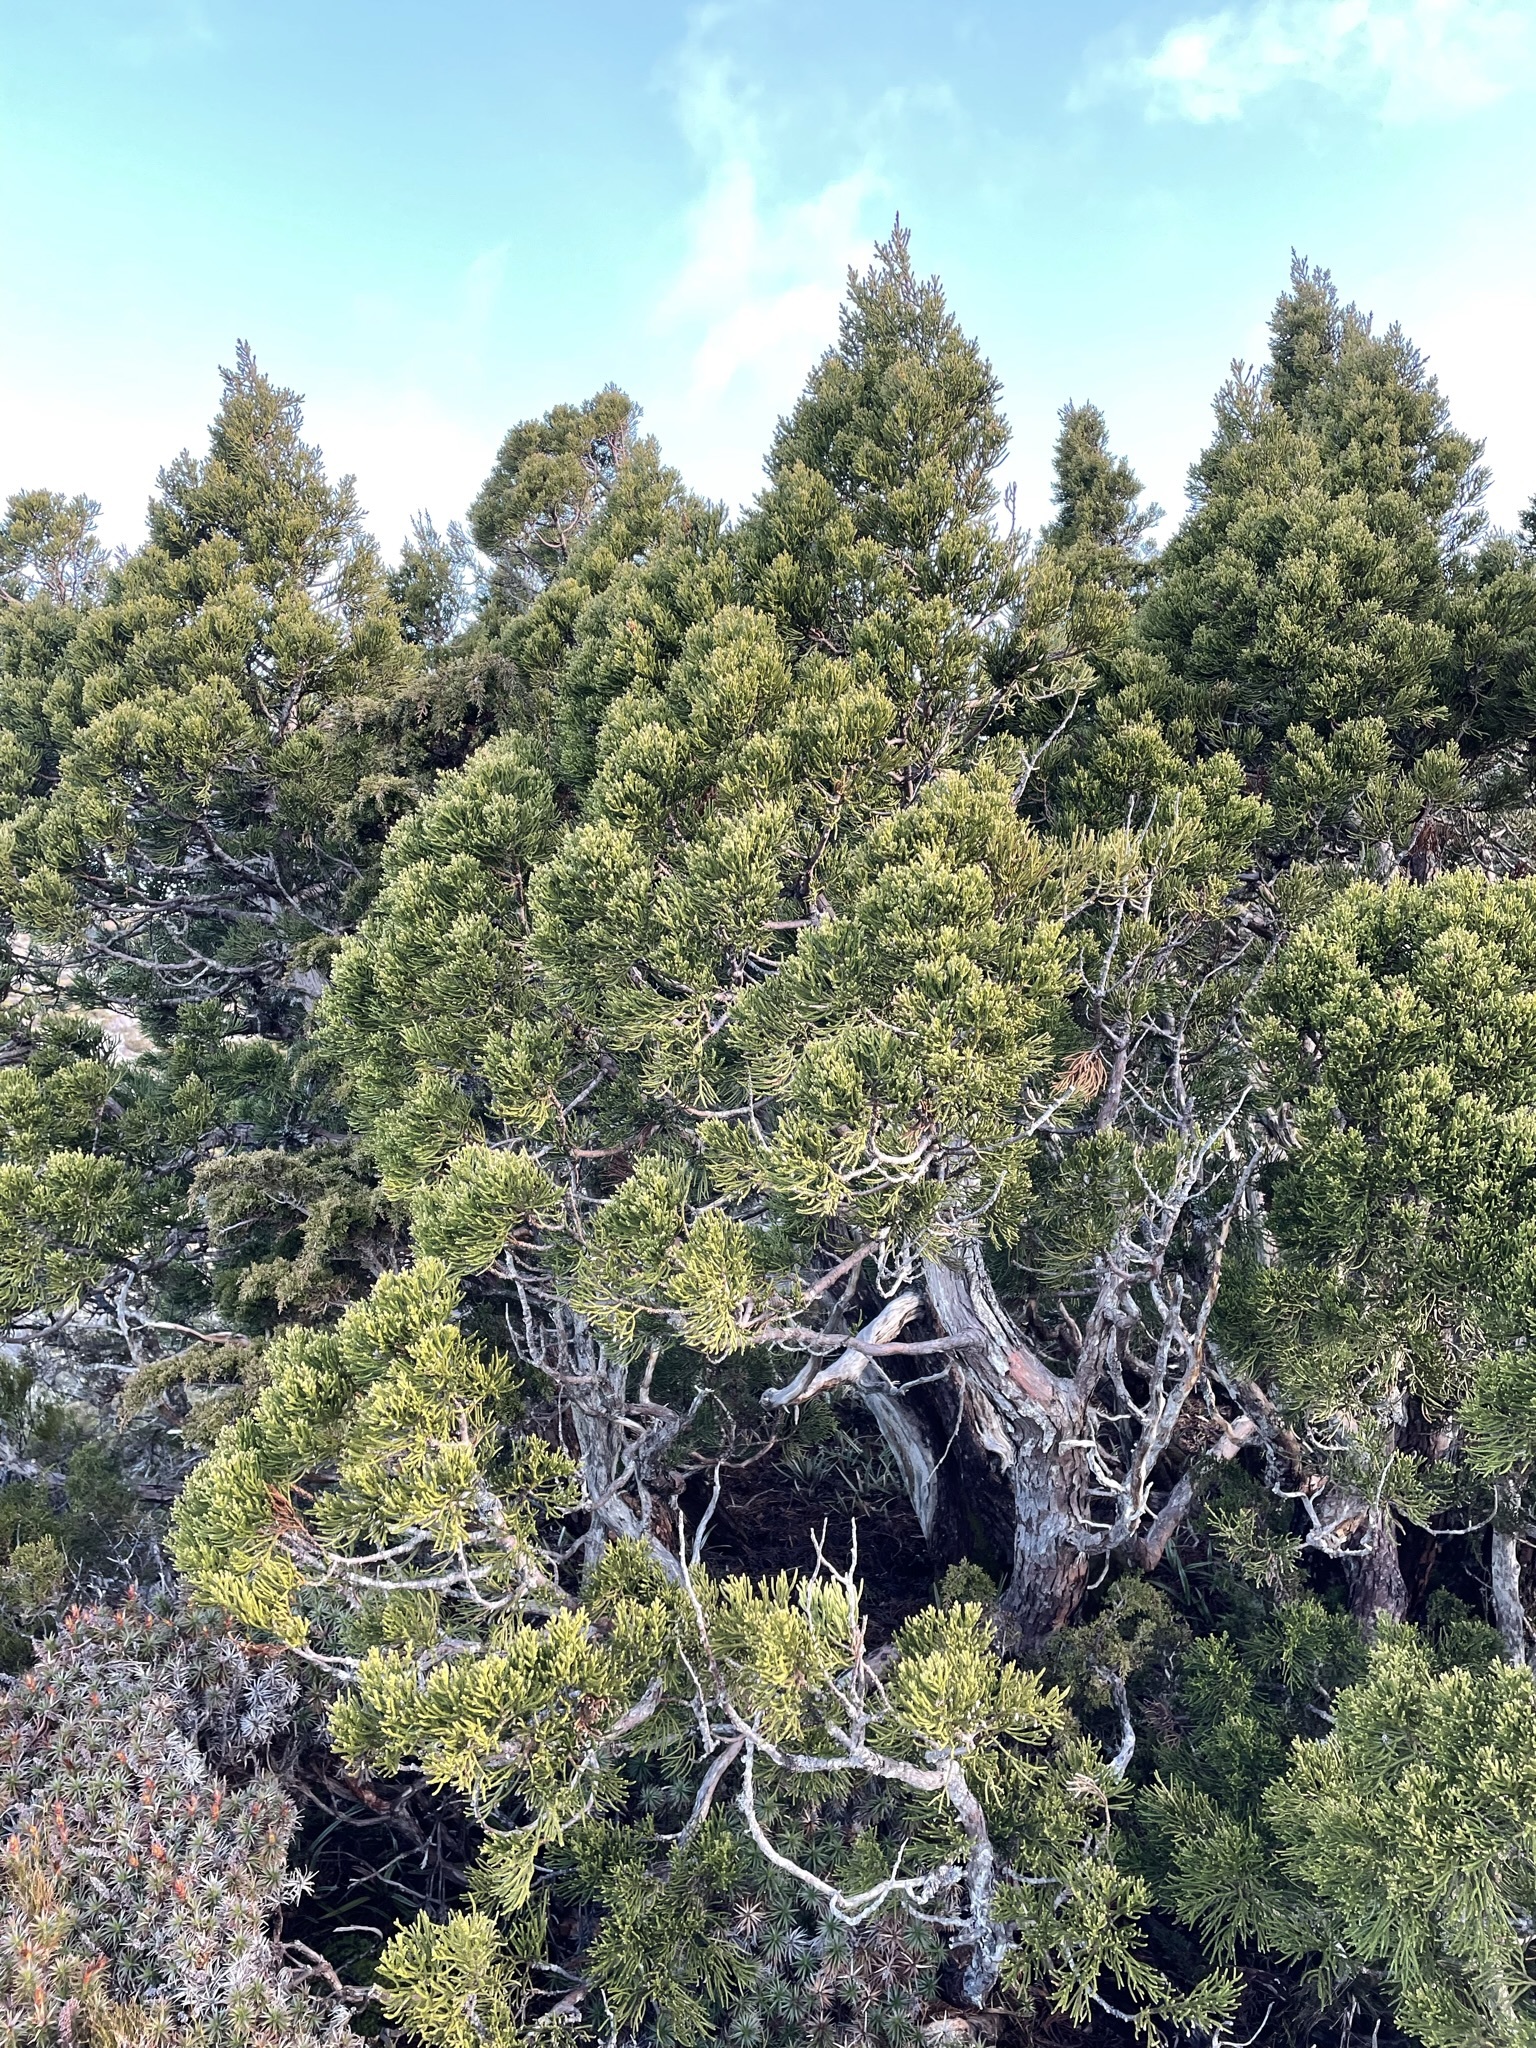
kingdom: Plantae
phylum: Tracheophyta
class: Pinopsida
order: Pinales
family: Cupressaceae
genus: Athrotaxis
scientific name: Athrotaxis cupressoides
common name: Tasmanian pencil pine
